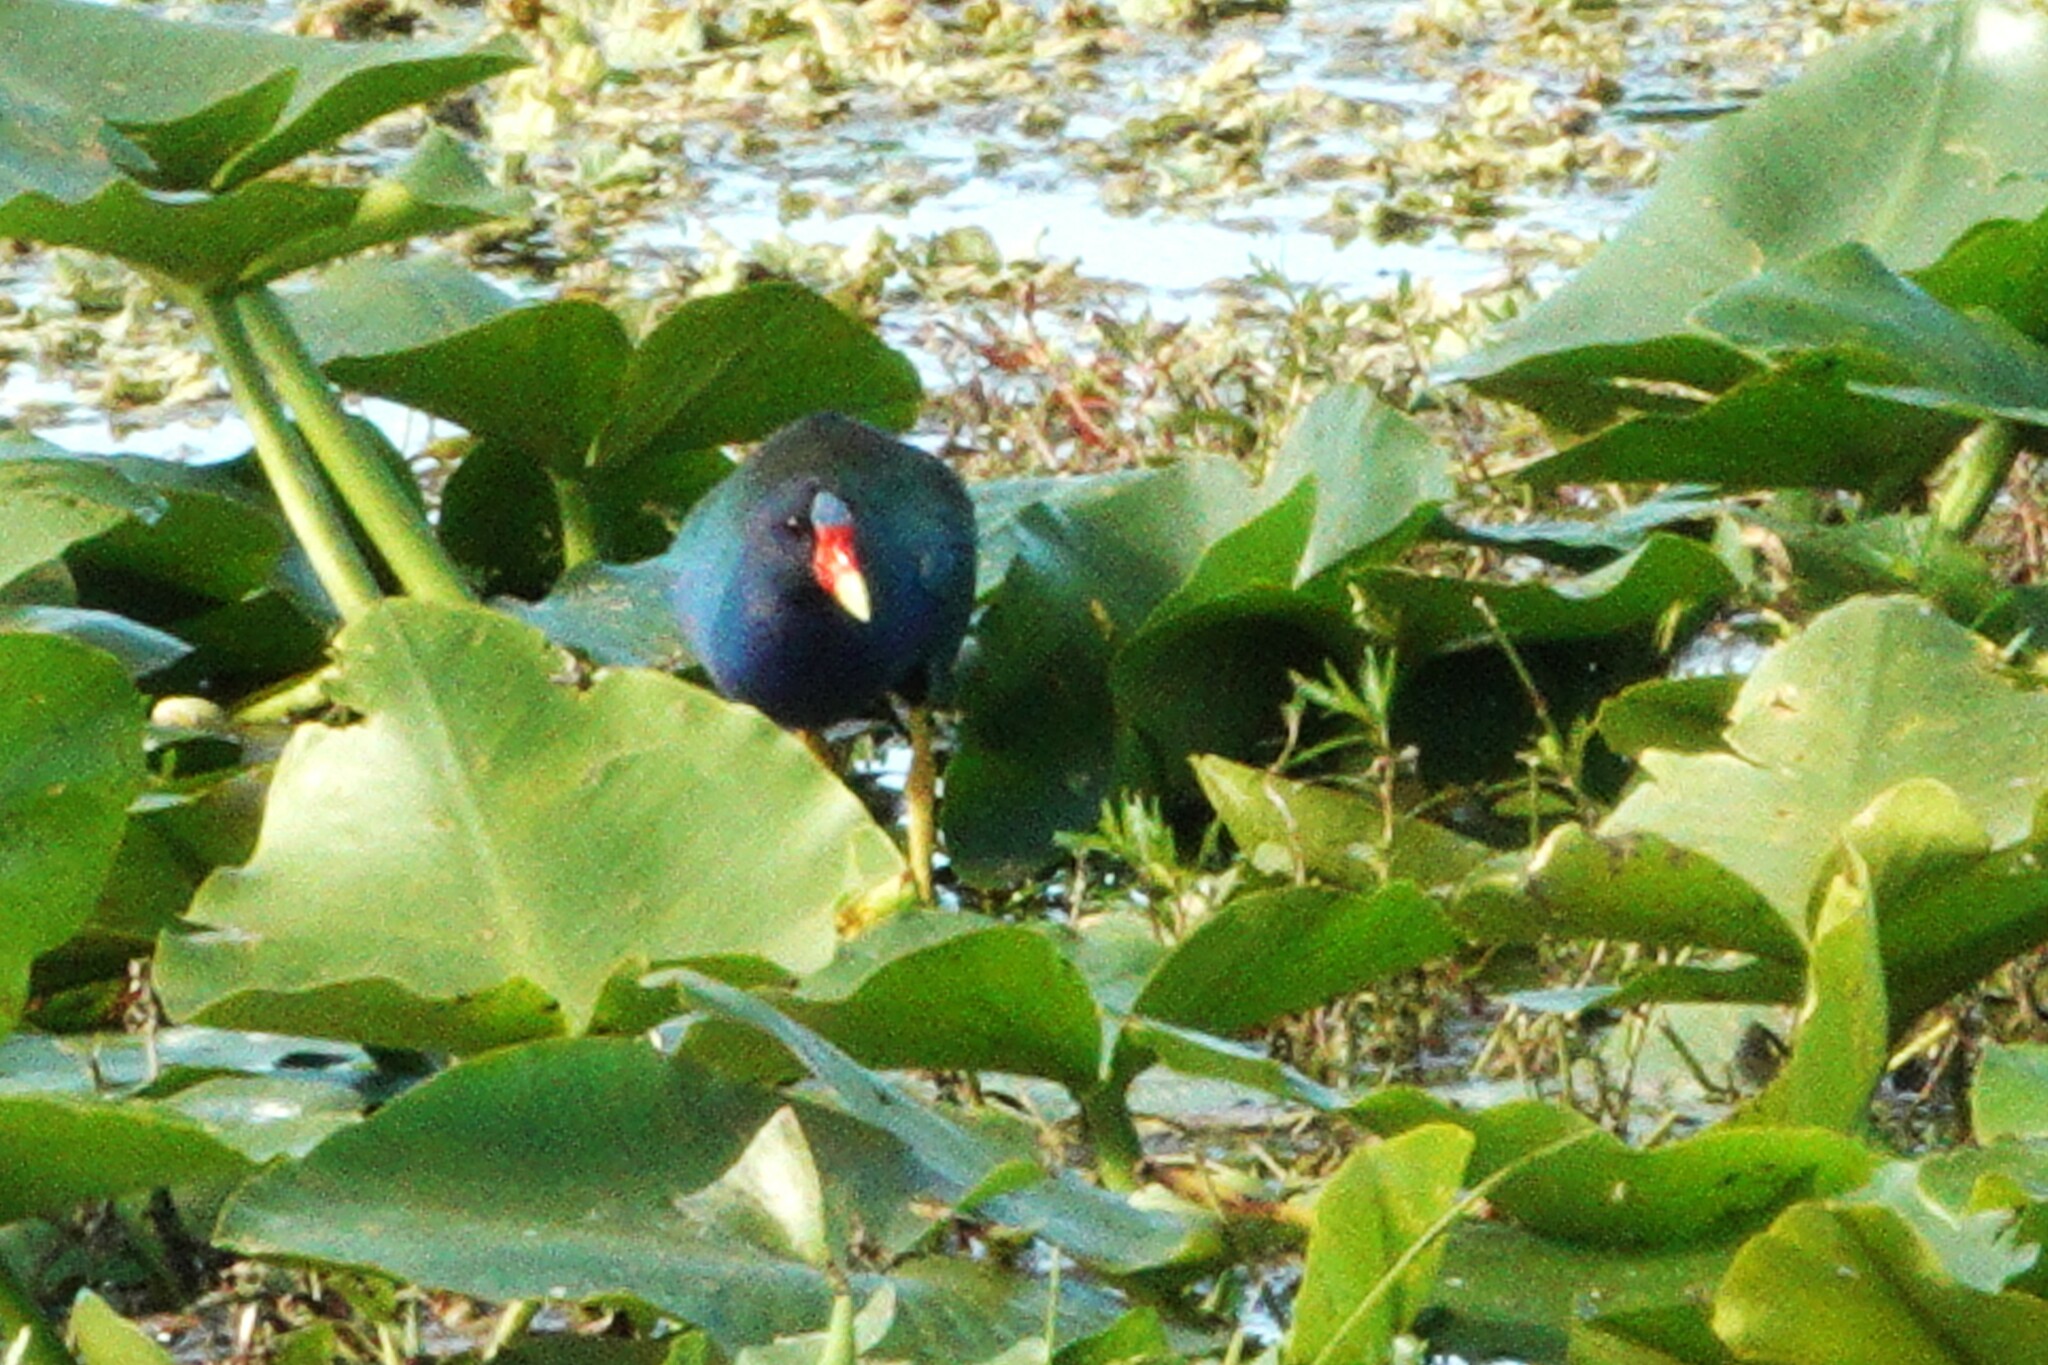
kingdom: Animalia
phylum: Chordata
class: Aves
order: Gruiformes
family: Rallidae
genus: Porphyrio
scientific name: Porphyrio martinica
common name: Purple gallinule
